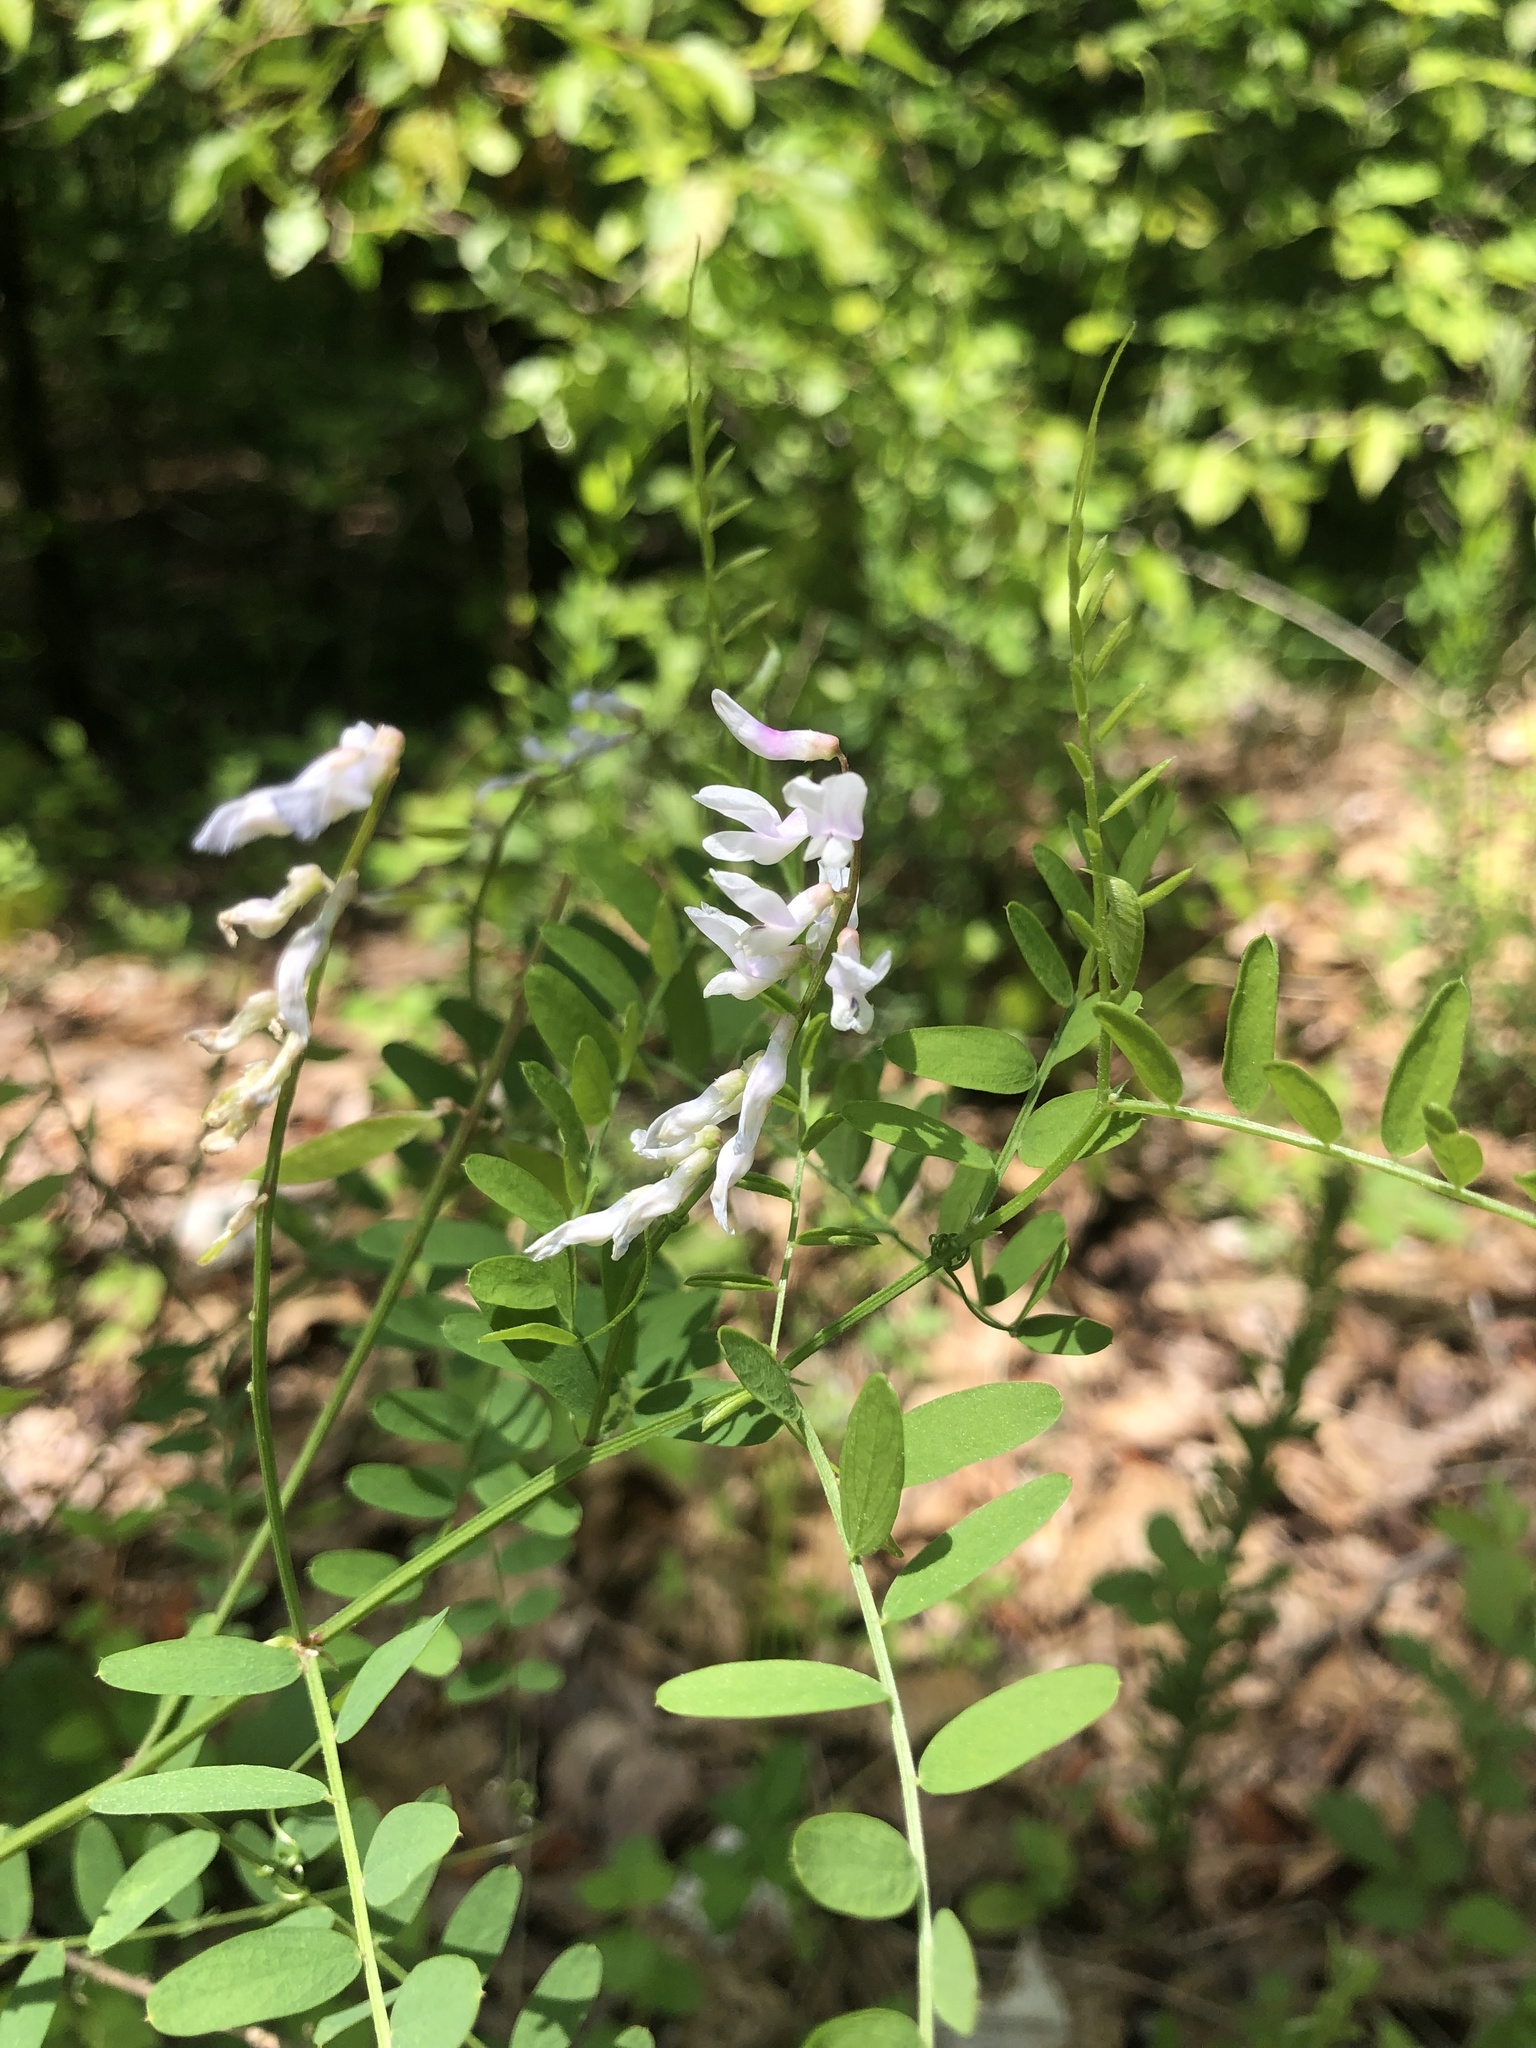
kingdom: Plantae
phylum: Tracheophyta
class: Magnoliopsida
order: Fabales
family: Fabaceae
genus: Vicia
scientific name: Vicia caroliniana
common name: Carolina vetch
